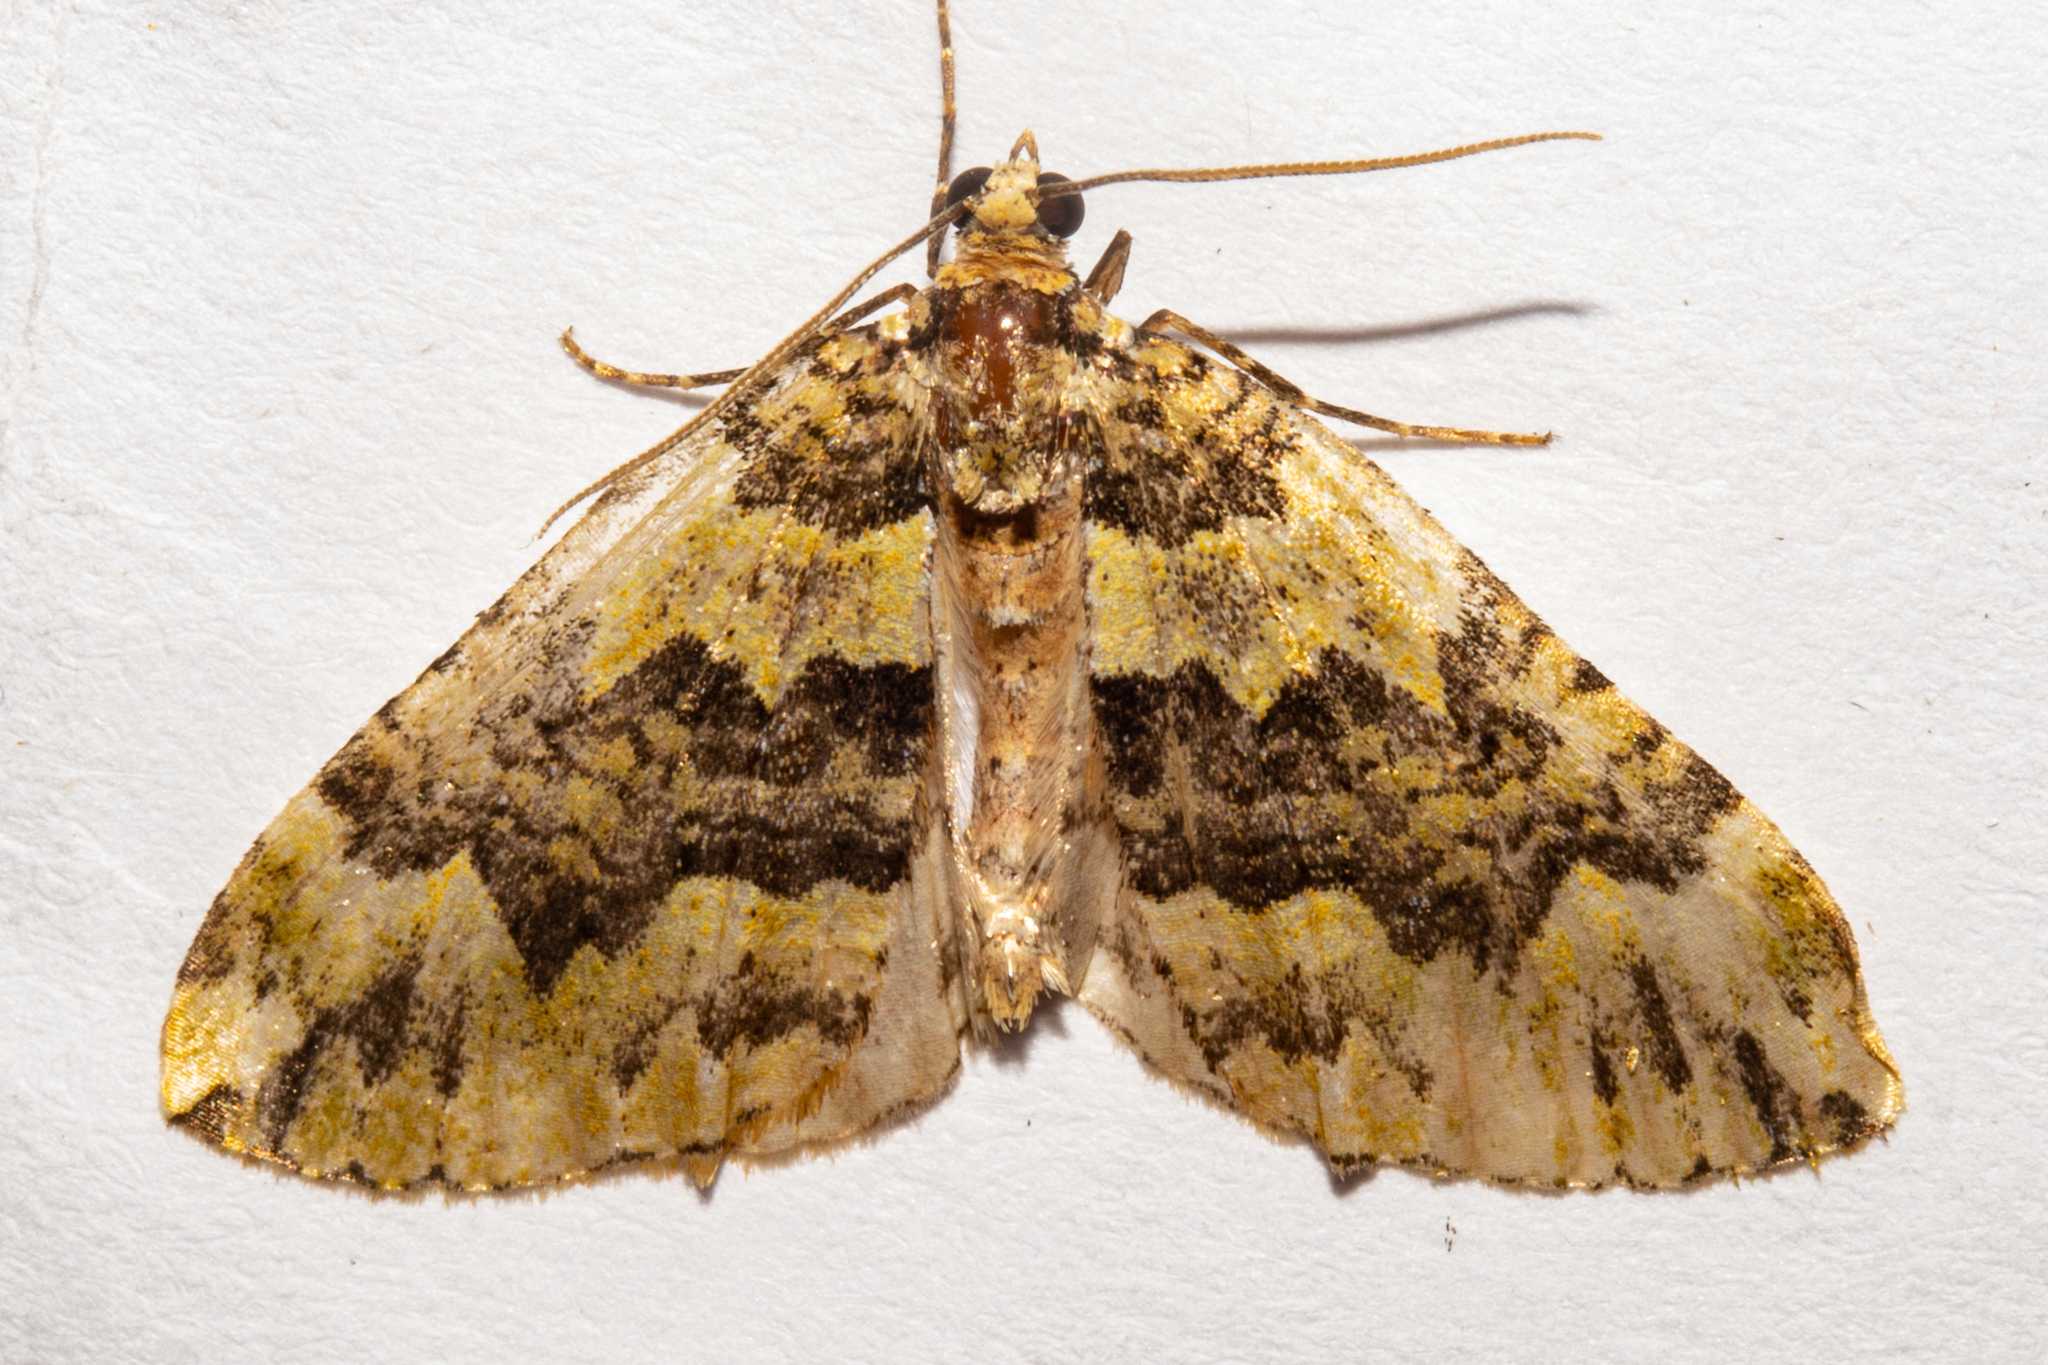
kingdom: Animalia
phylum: Arthropoda
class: Insecta
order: Lepidoptera
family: Geometridae
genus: Austrocidaria
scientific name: Austrocidaria callichlora
